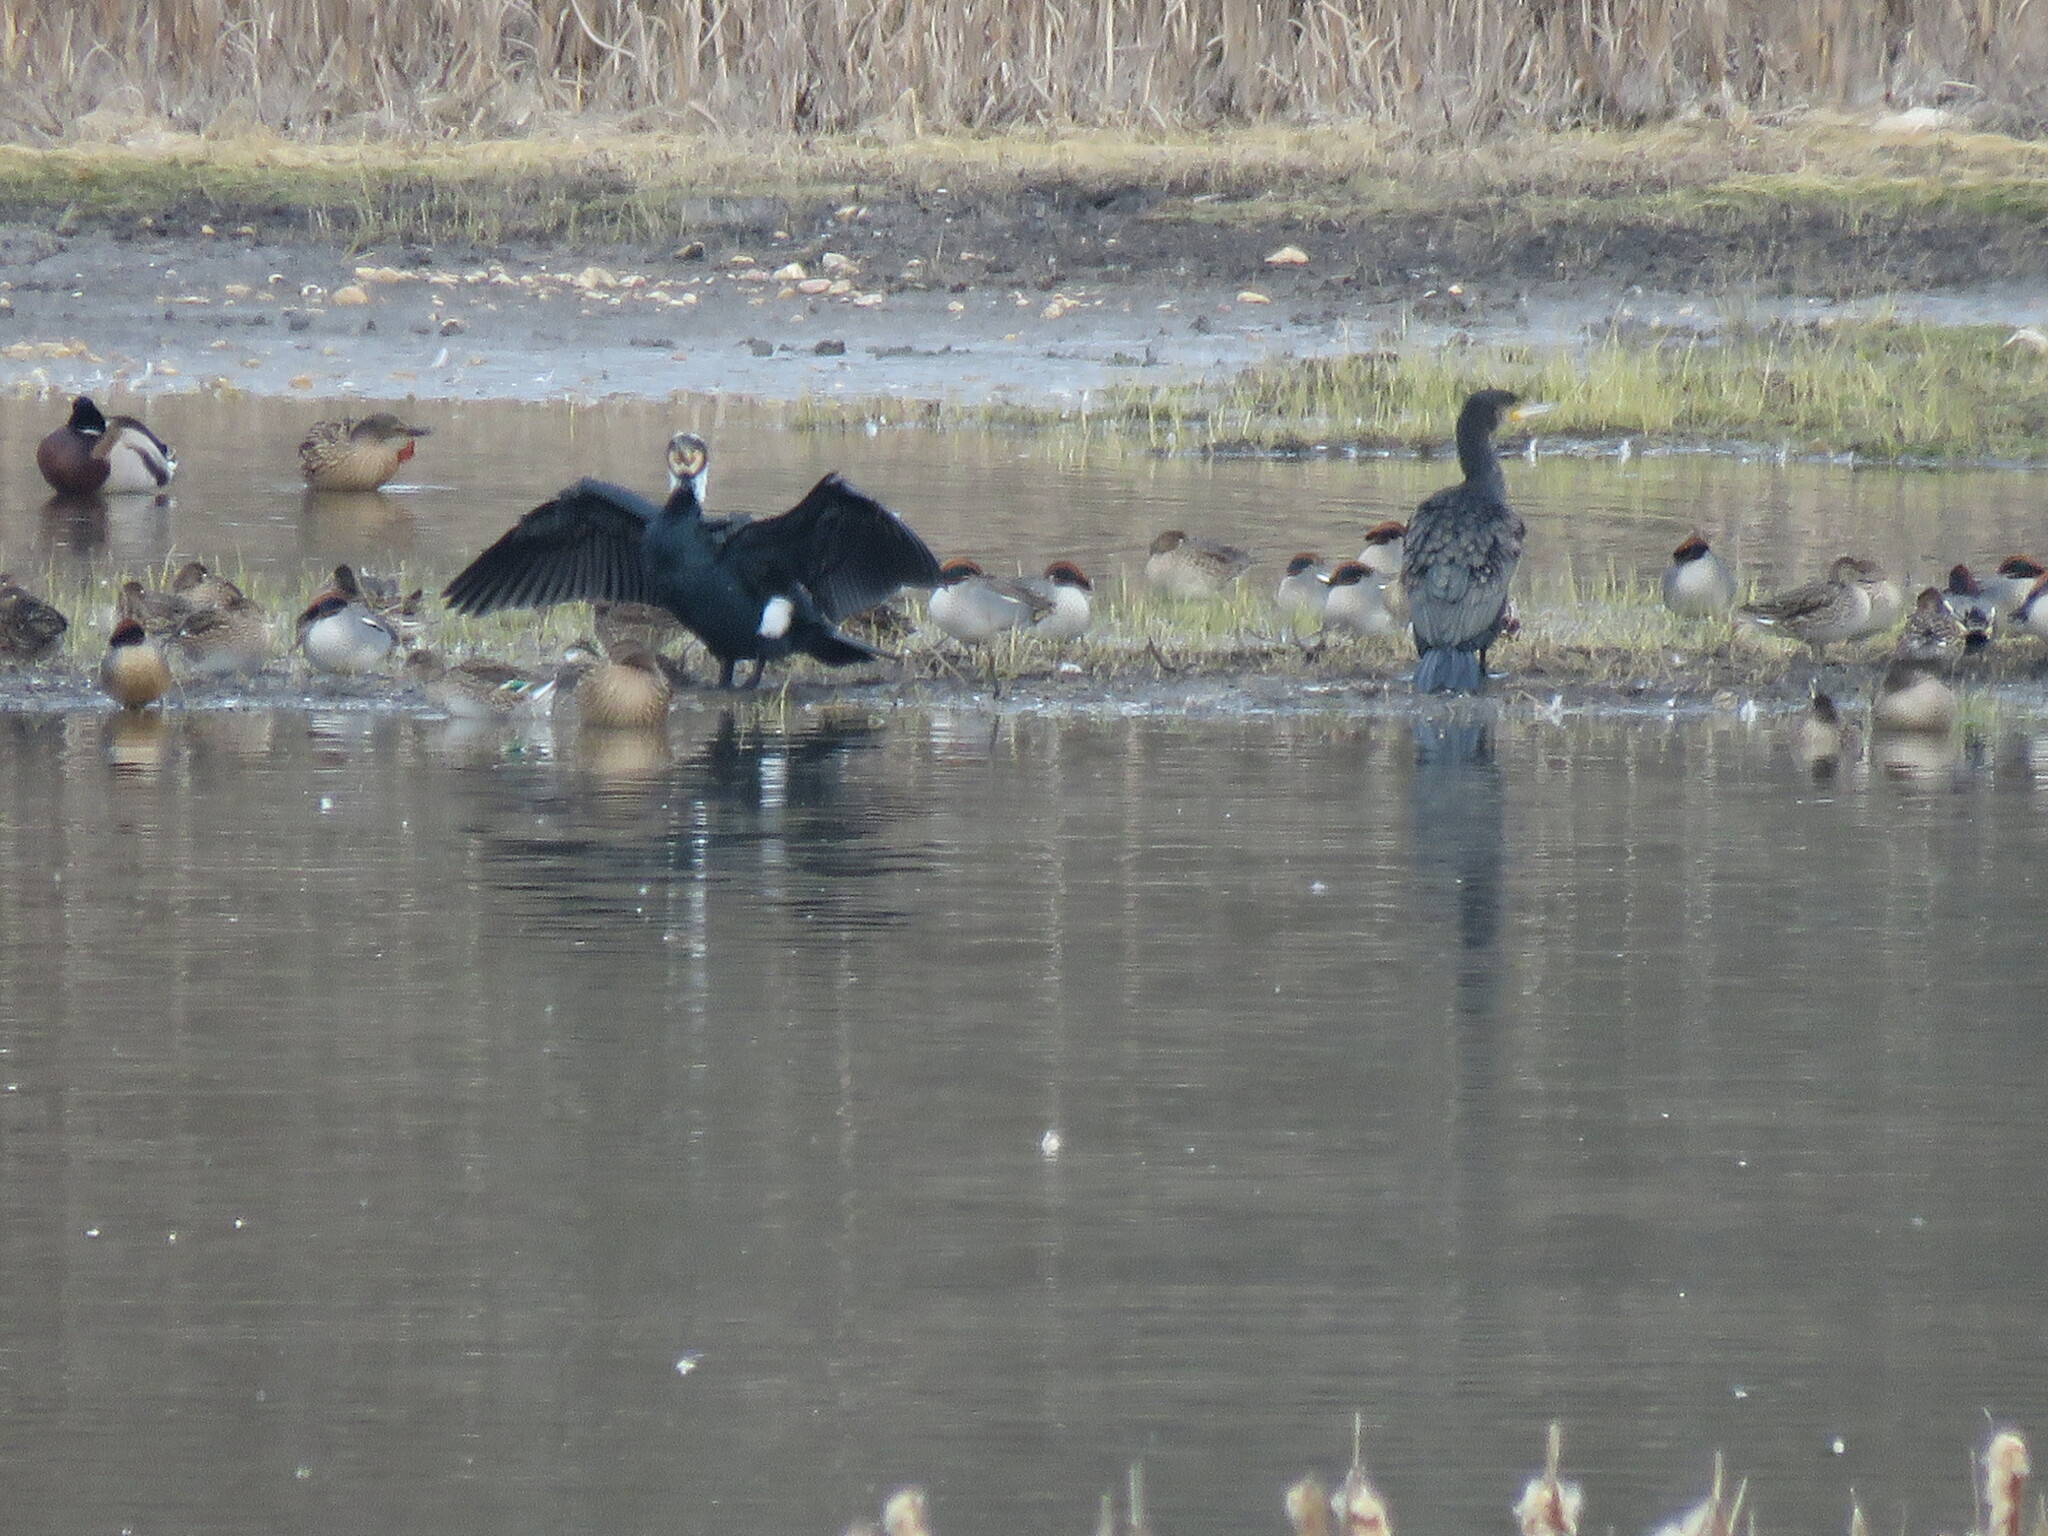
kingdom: Animalia
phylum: Chordata
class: Aves
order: Suliformes
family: Phalacrocoracidae
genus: Phalacrocorax
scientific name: Phalacrocorax carbo
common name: Great cormorant
